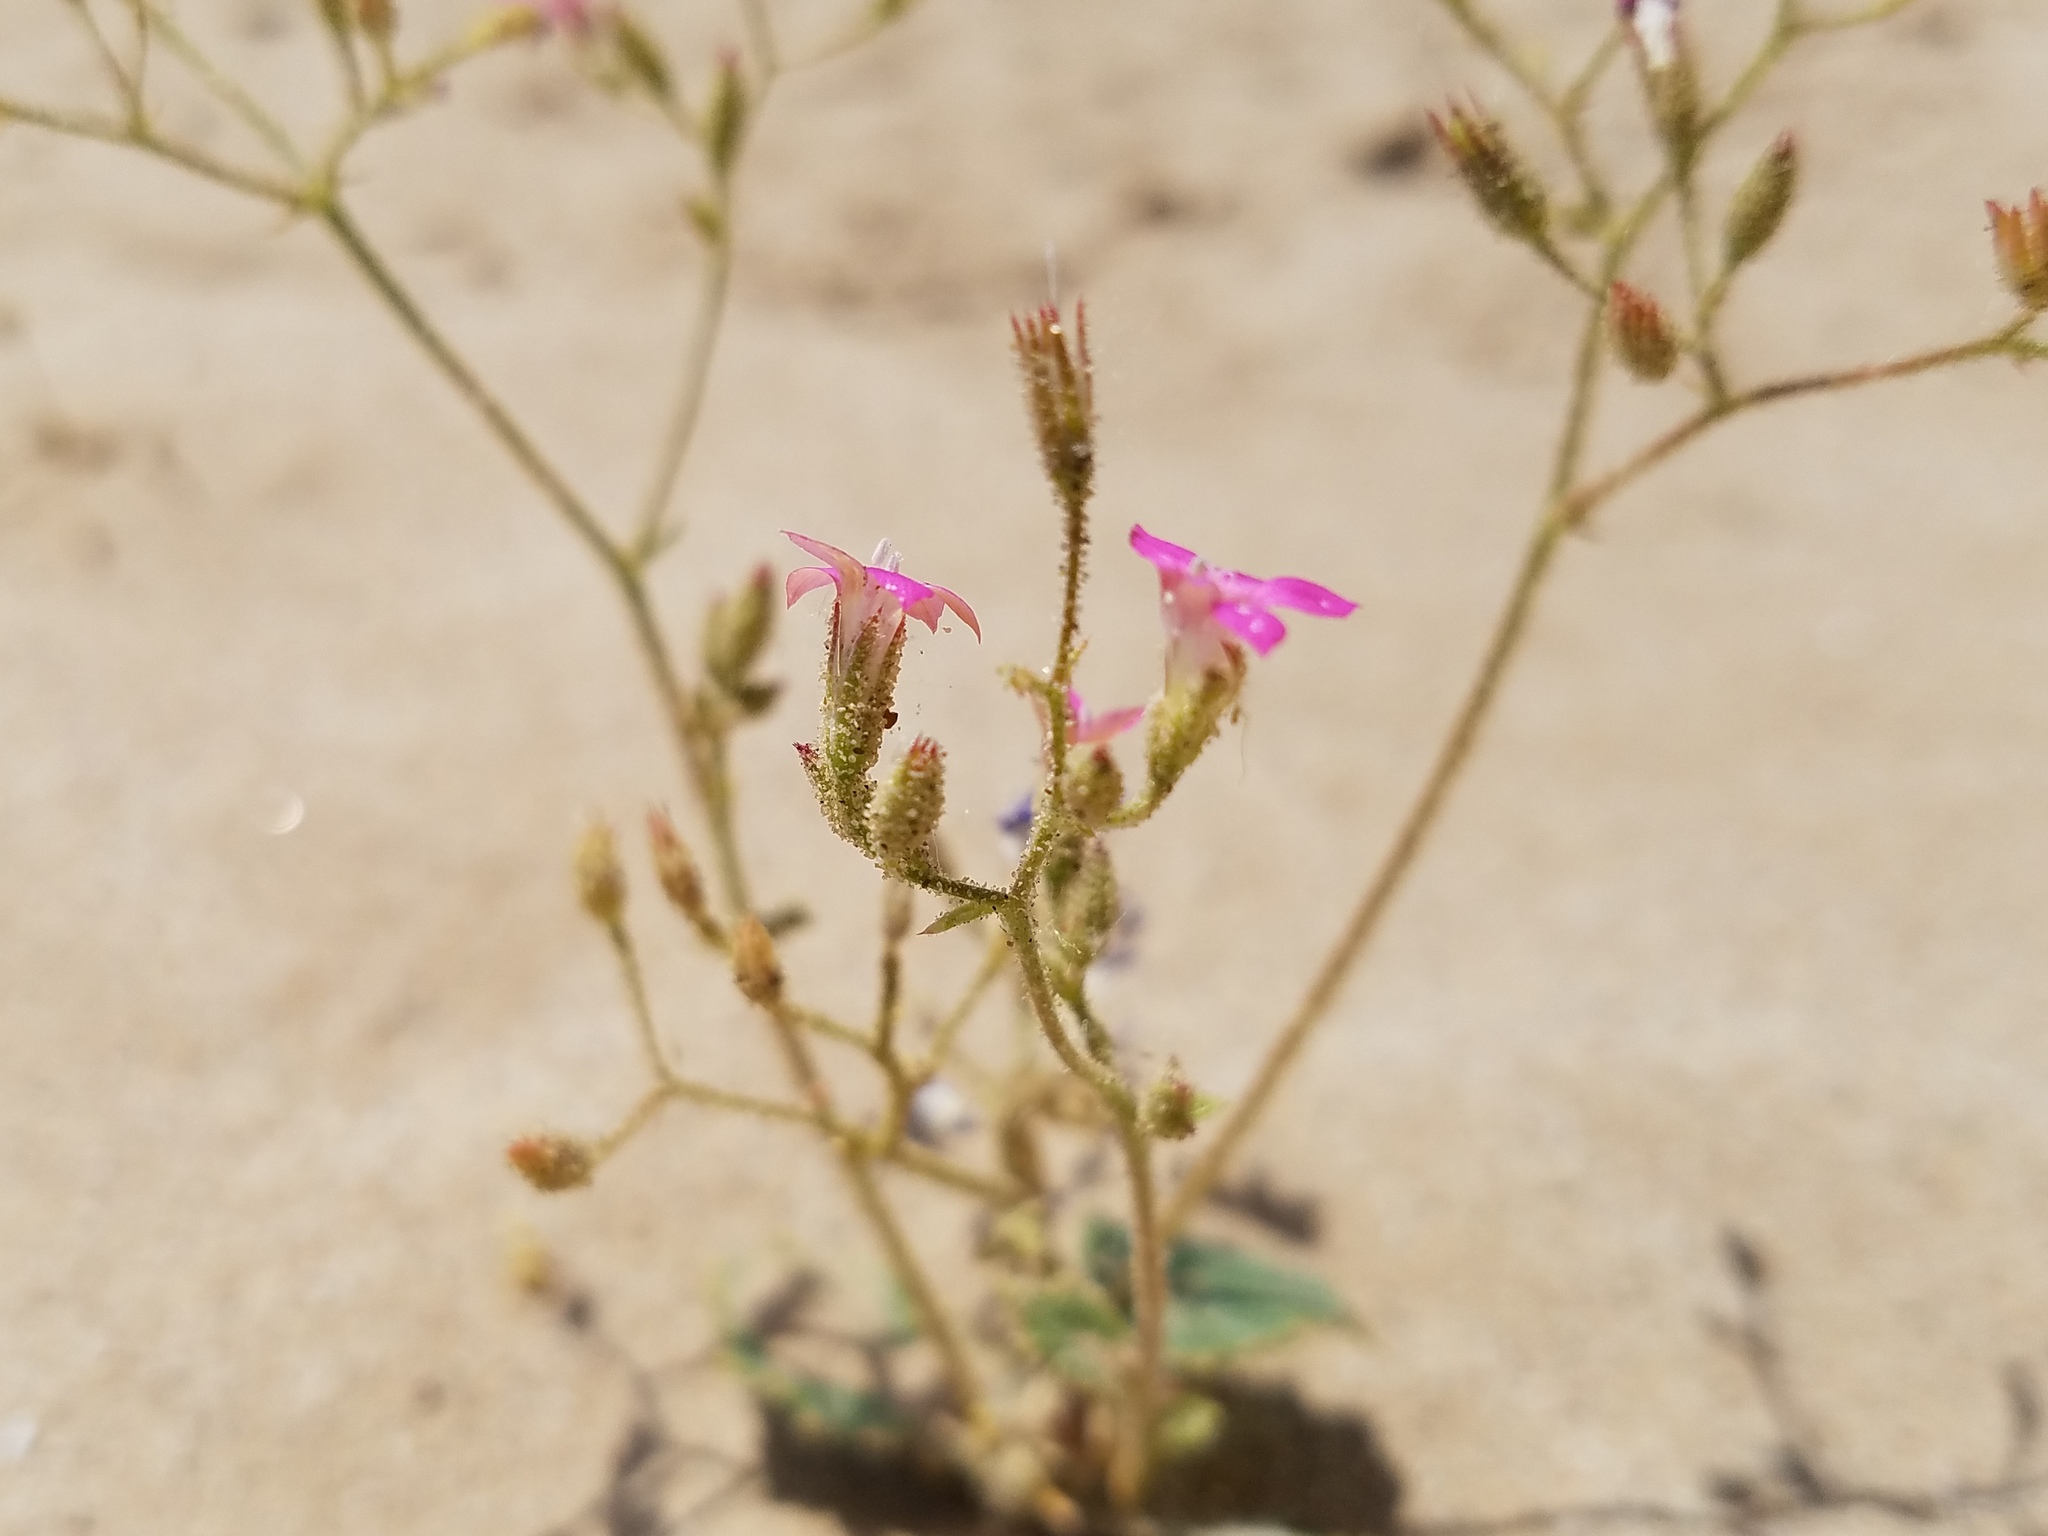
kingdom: Plantae
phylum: Tracheophyta
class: Magnoliopsida
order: Ericales
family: Polemoniaceae
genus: Aliciella
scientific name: Aliciella latifolia
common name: Broad-leaf gilia
